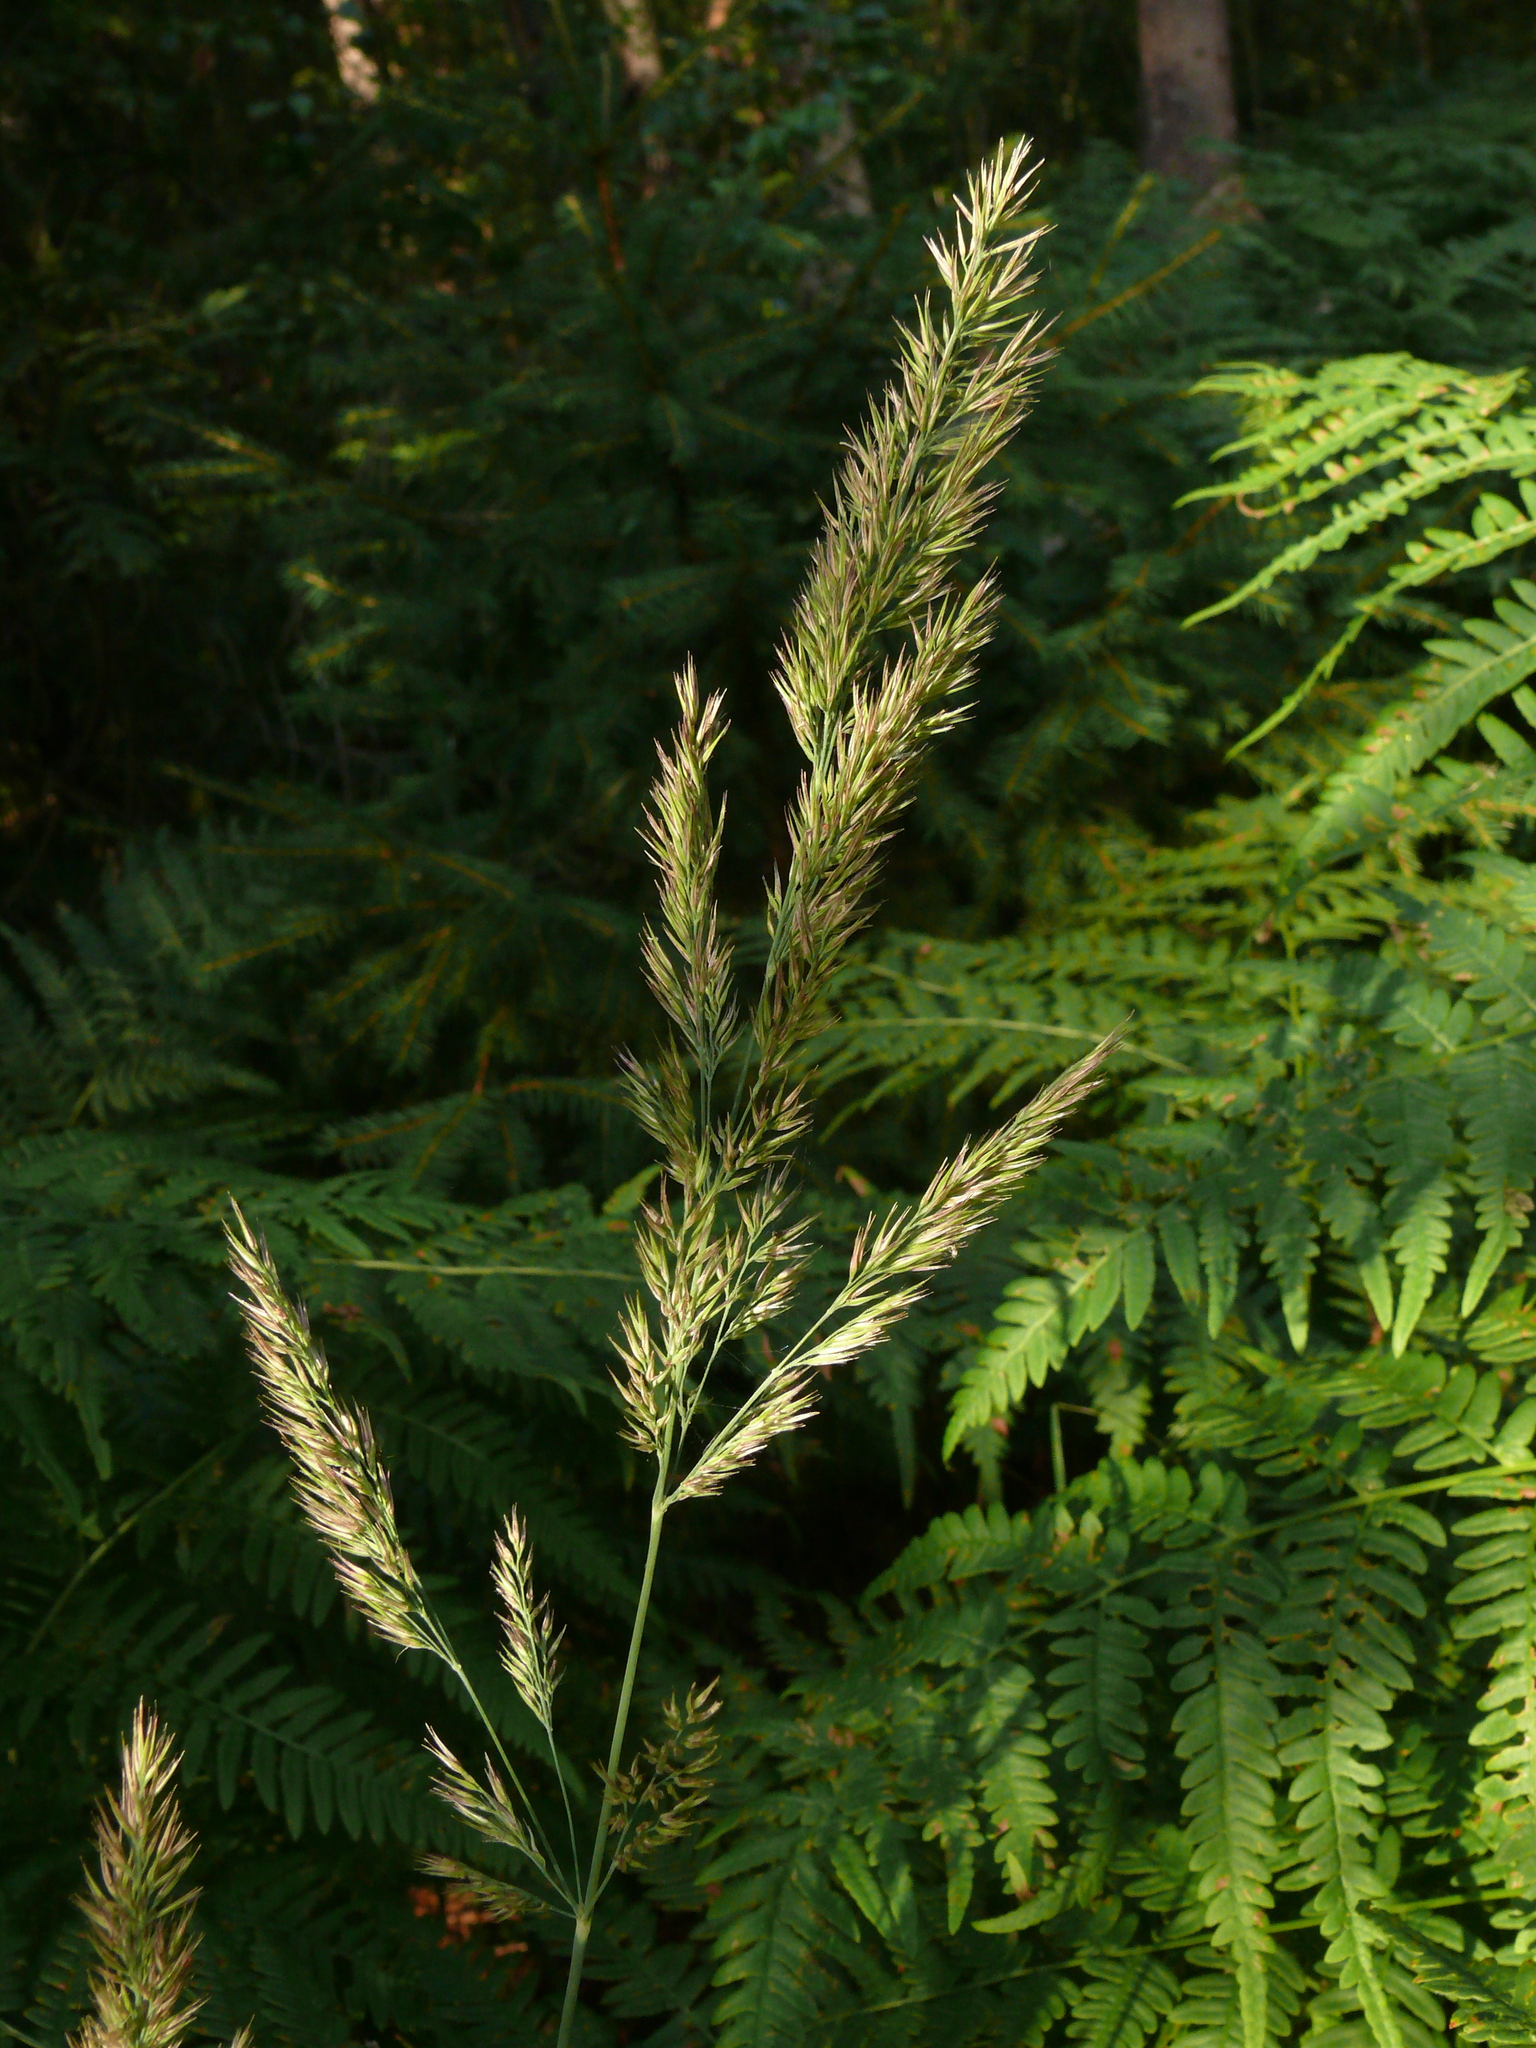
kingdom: Plantae
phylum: Tracheophyta
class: Liliopsida
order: Poales
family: Poaceae
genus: Calamagrostis
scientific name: Calamagrostis epigejos
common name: Wood small-reed
